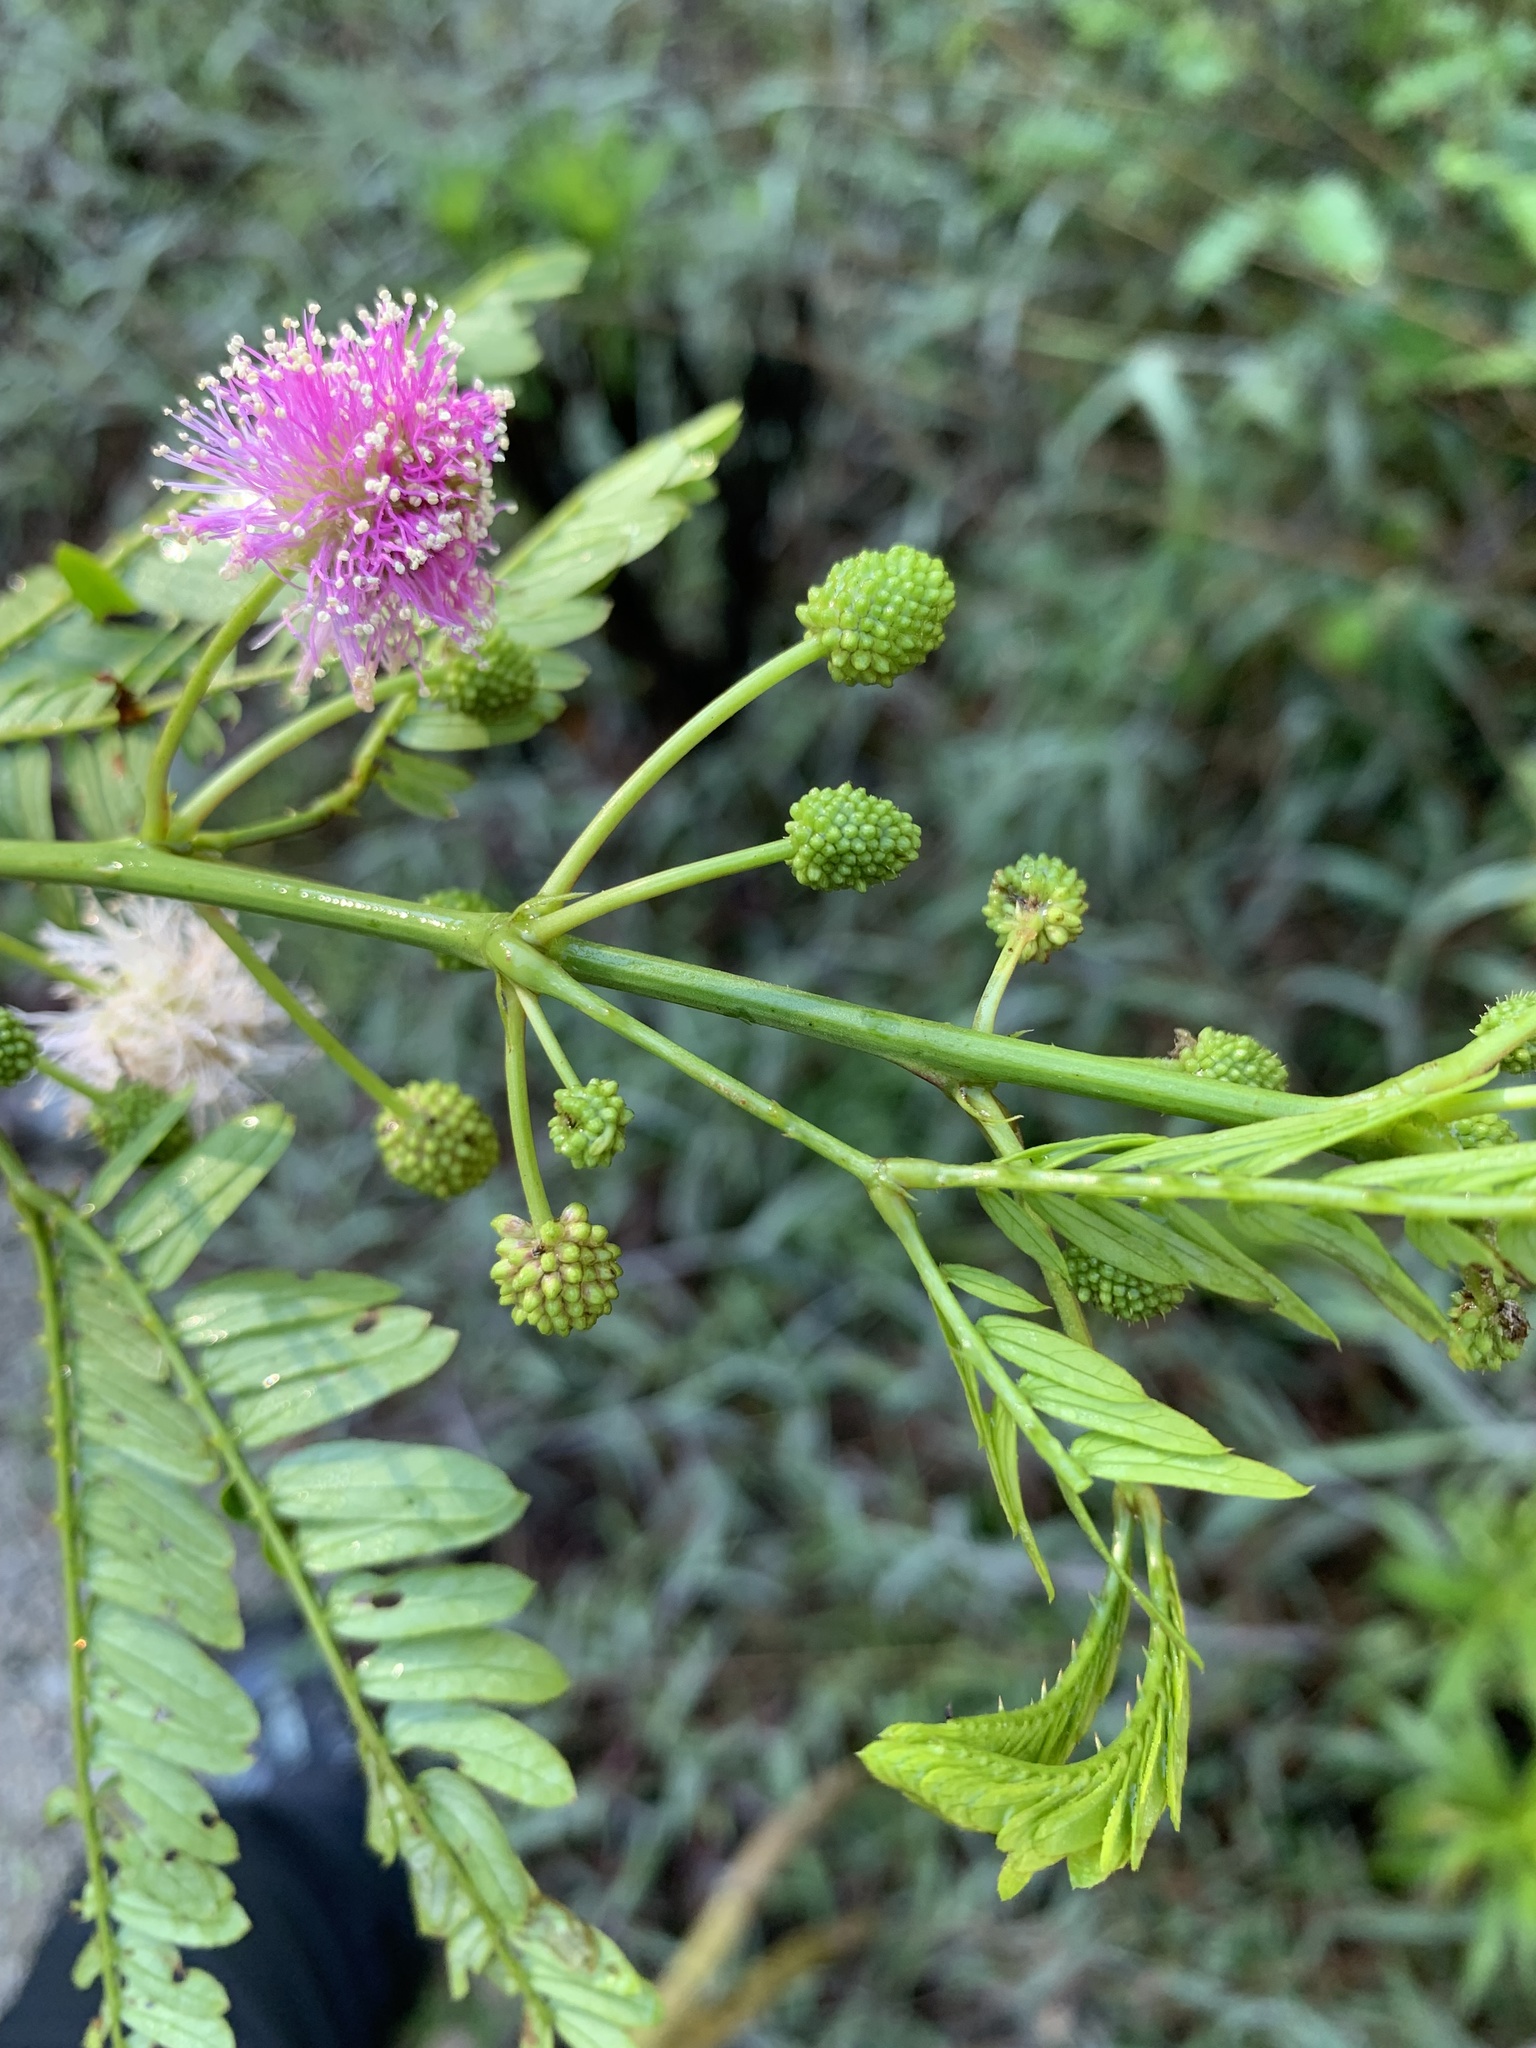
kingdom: Plantae
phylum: Tracheophyta
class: Magnoliopsida
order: Fabales
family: Fabaceae
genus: Mimosa
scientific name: Mimosa cuzcoana
